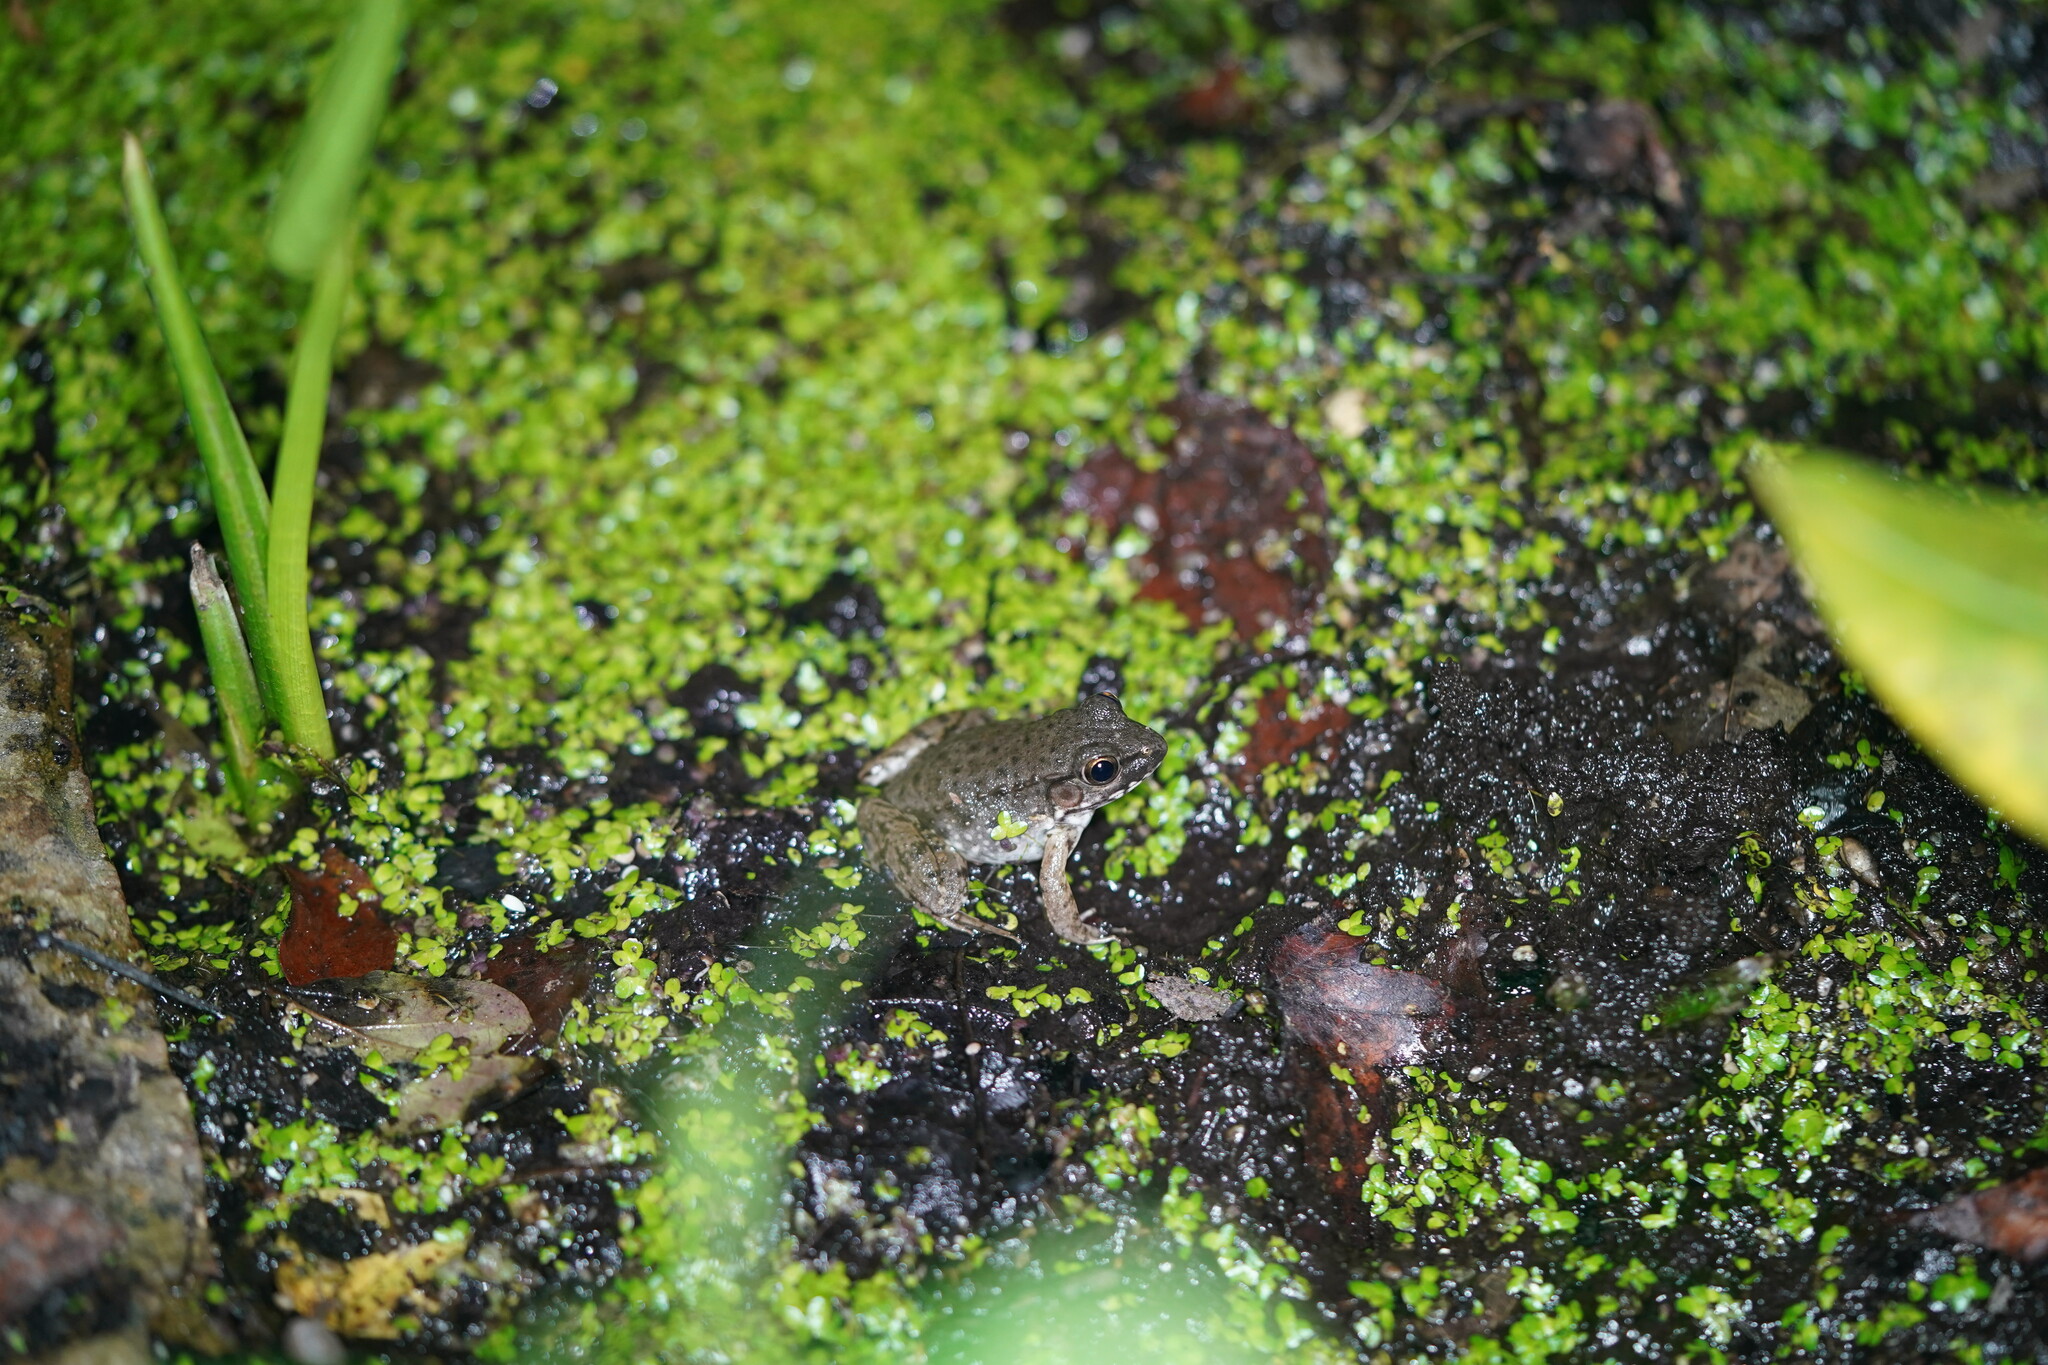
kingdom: Animalia
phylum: Chordata
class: Amphibia
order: Anura
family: Ranidae
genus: Lithobates
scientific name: Lithobates clamitans
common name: Green frog
